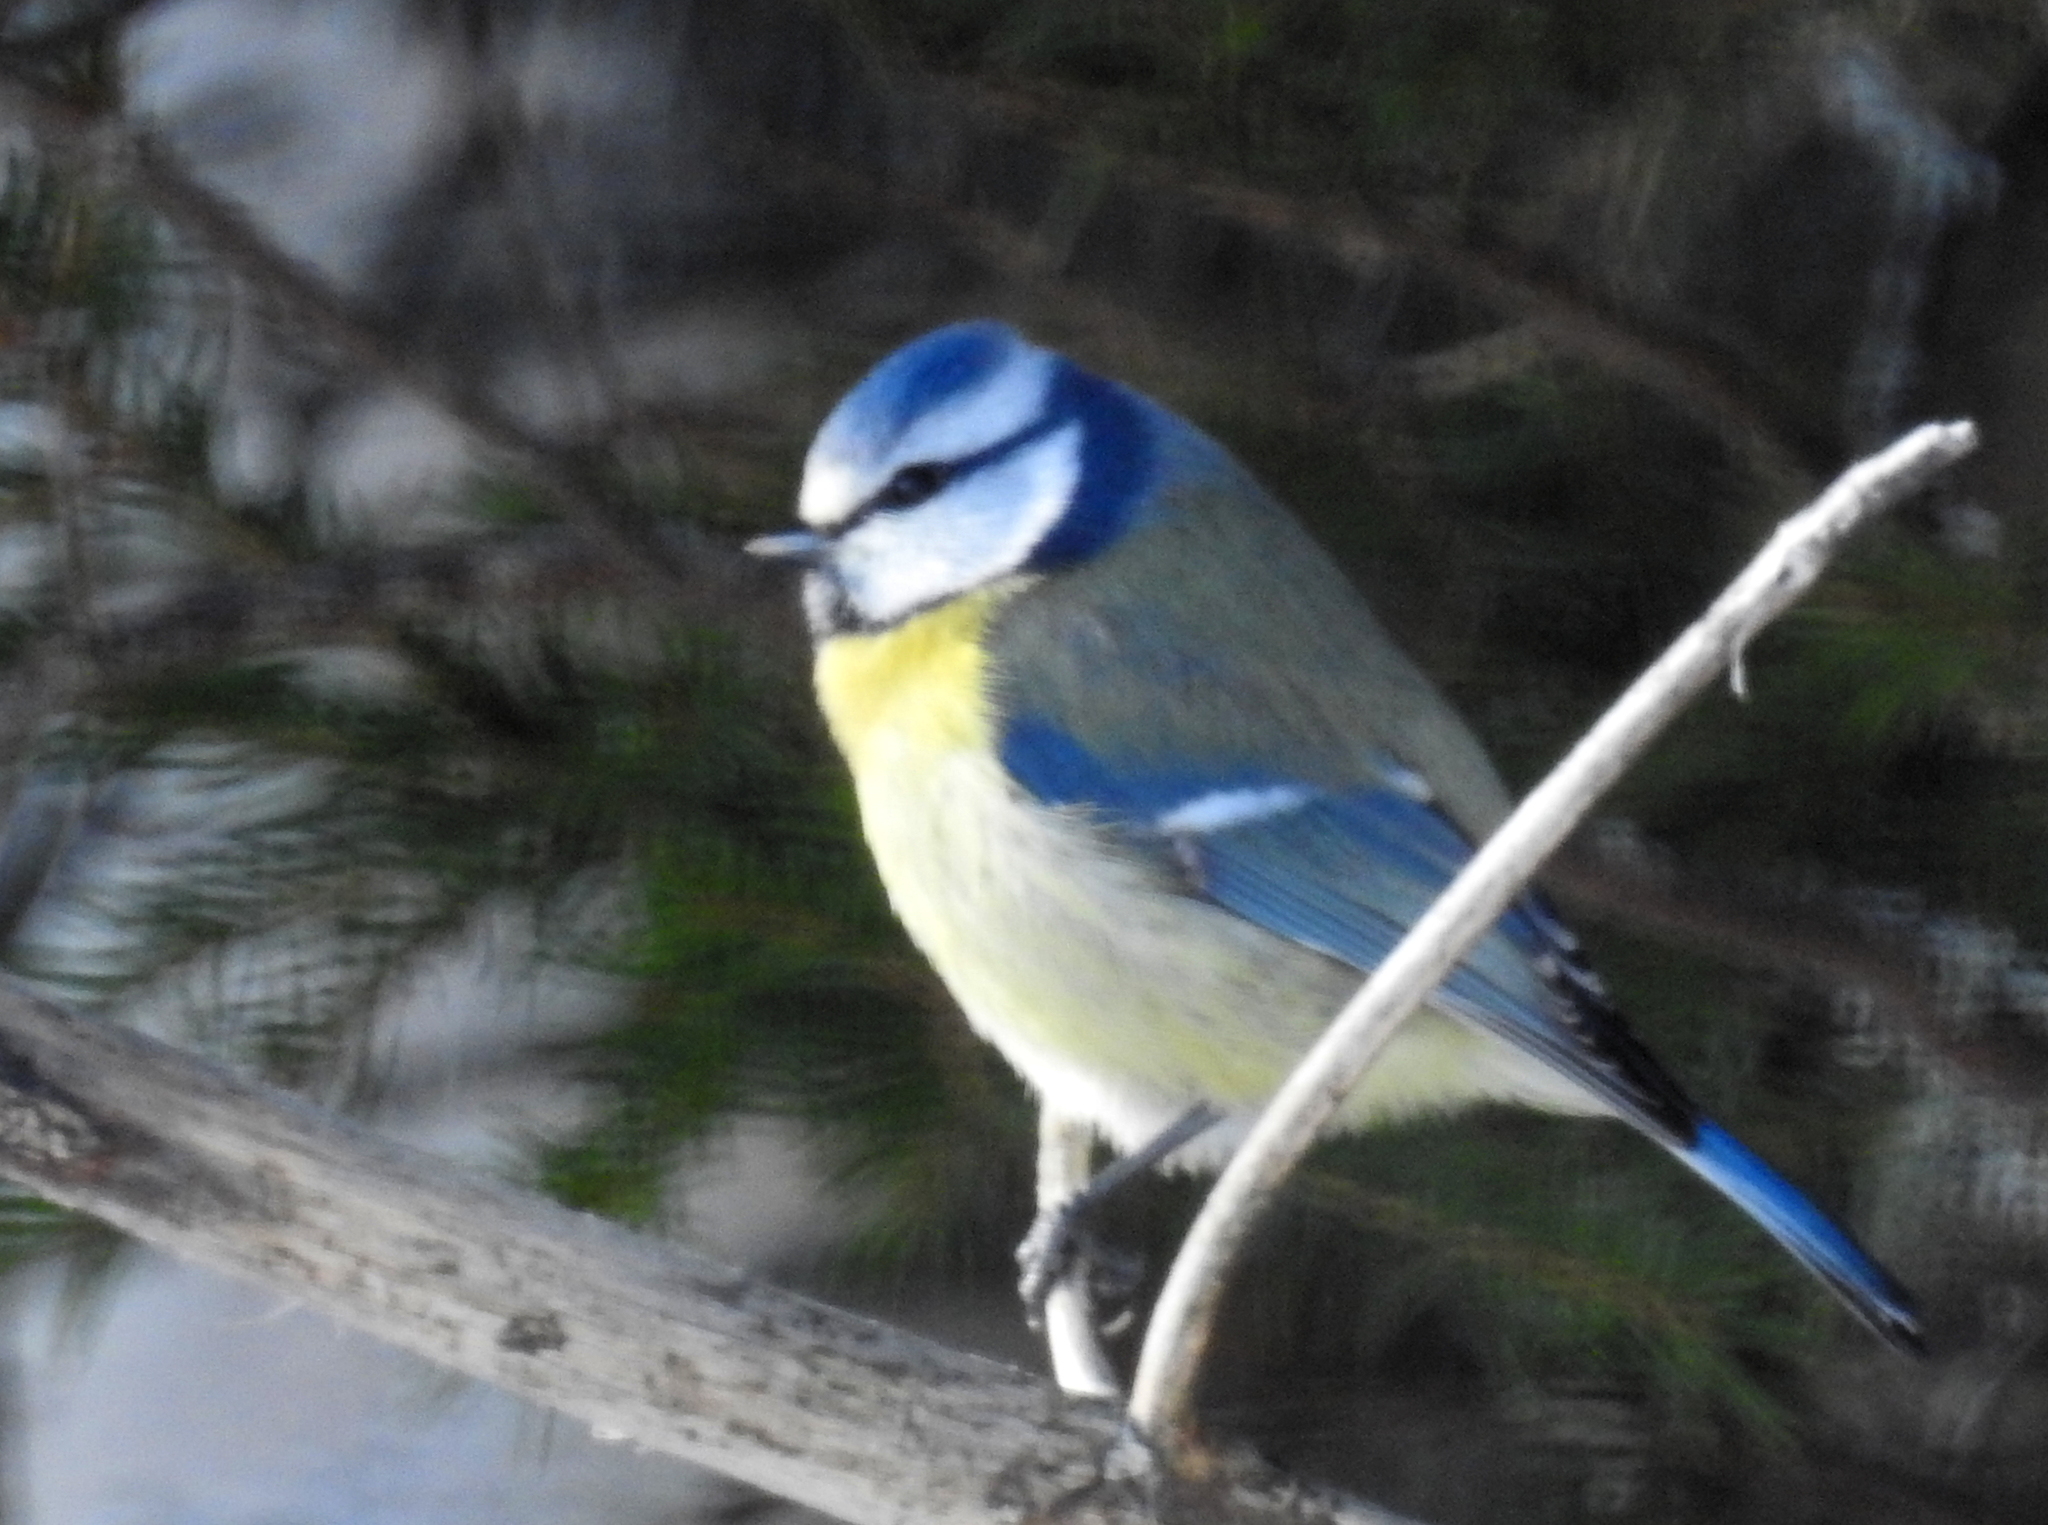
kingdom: Animalia
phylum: Chordata
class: Aves
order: Passeriformes
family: Paridae
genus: Cyanistes
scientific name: Cyanistes caeruleus
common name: Eurasian blue tit
